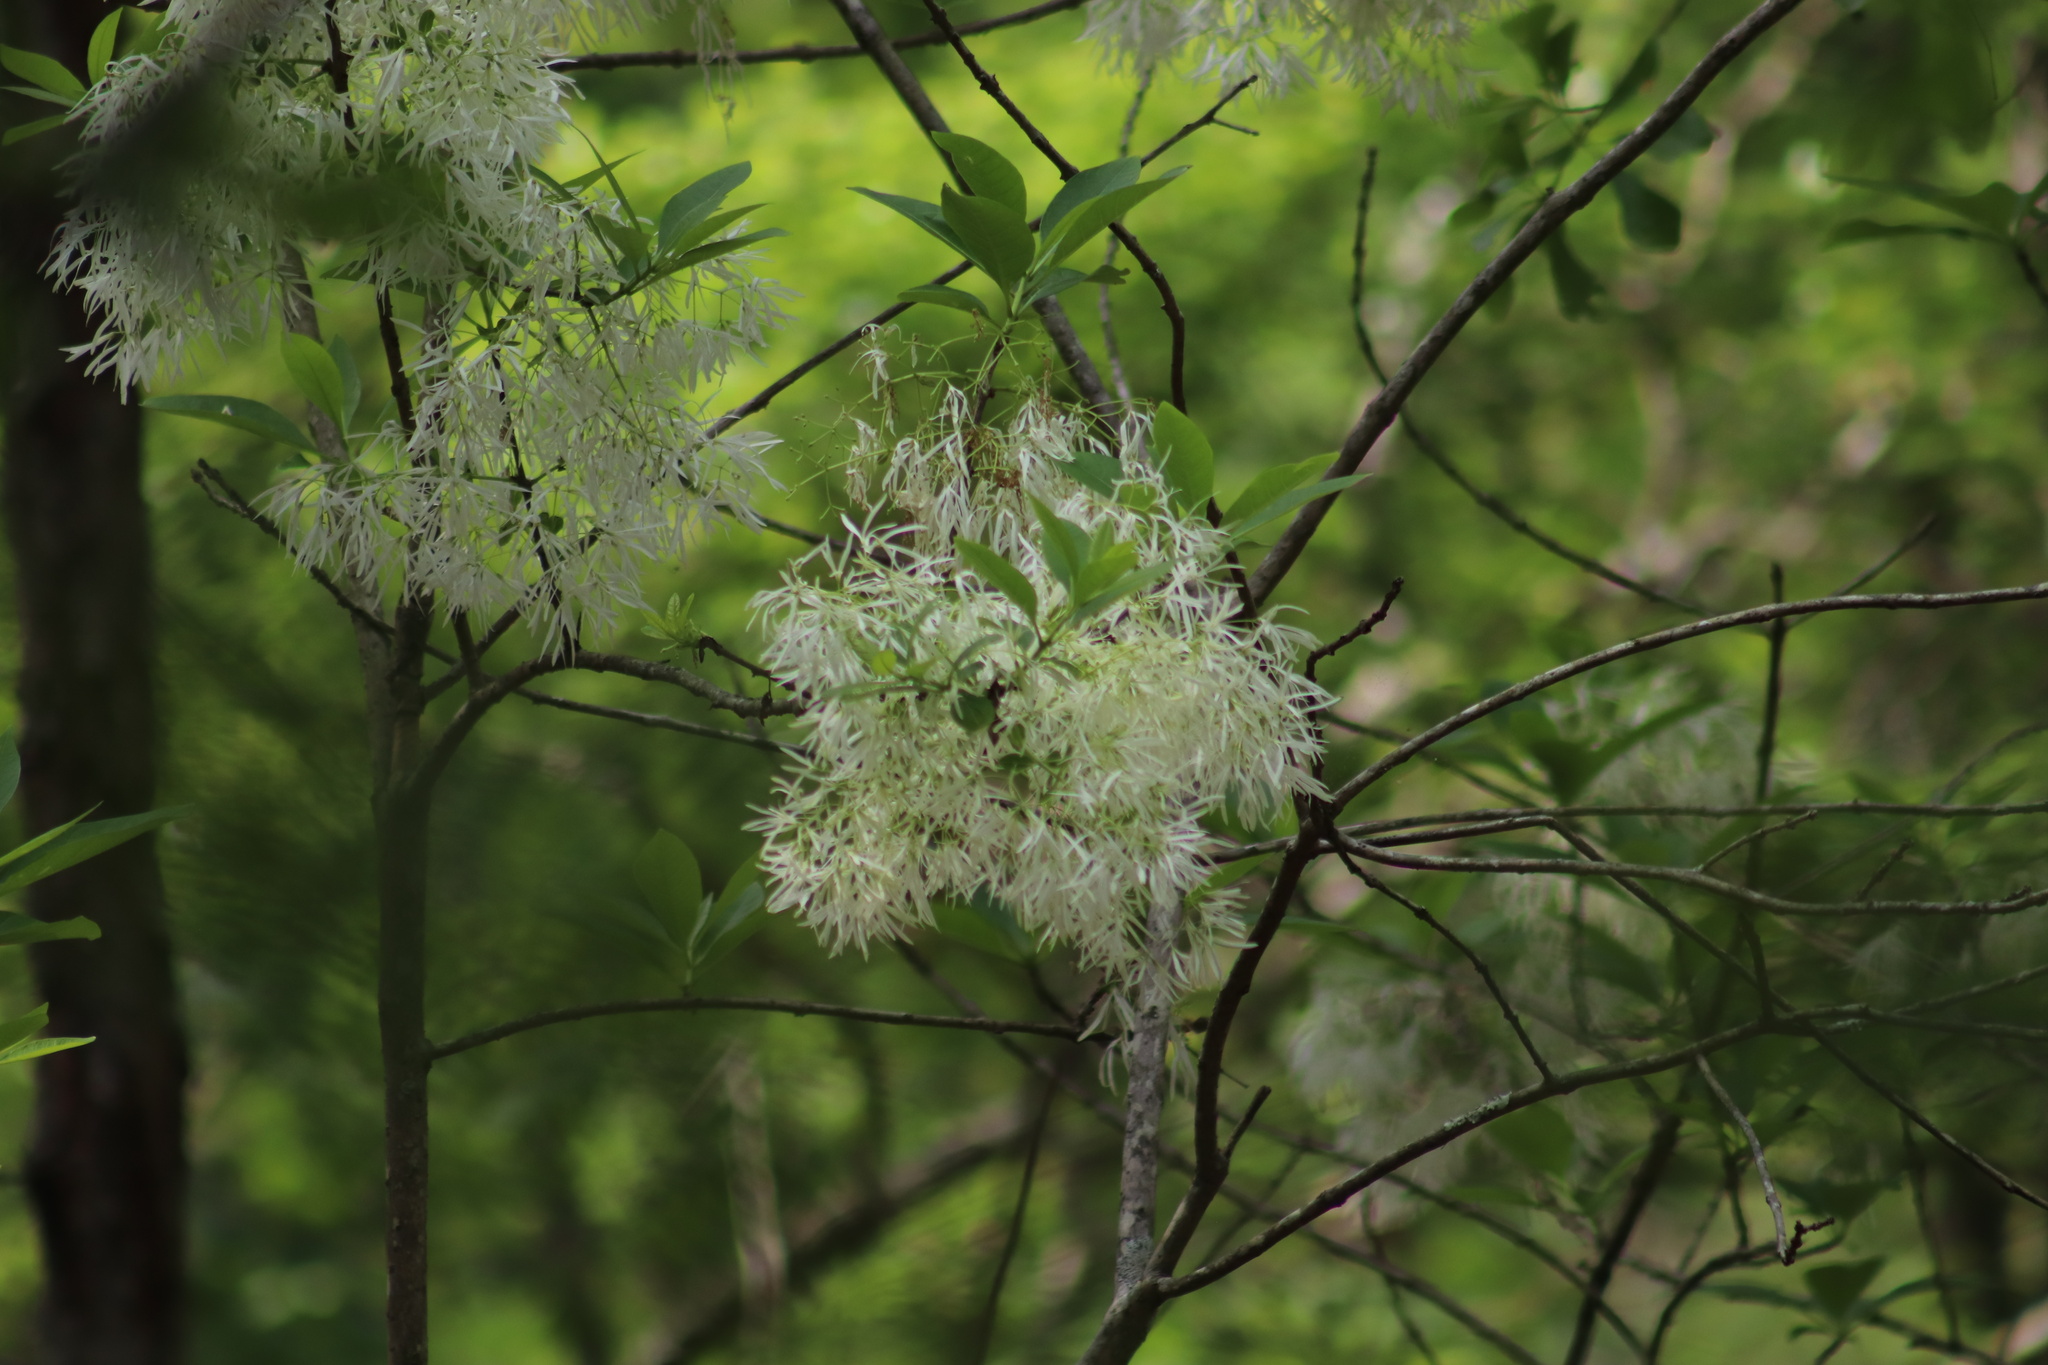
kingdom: Plantae
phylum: Tracheophyta
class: Magnoliopsida
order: Lamiales
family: Oleaceae
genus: Chionanthus
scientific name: Chionanthus virginicus
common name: American fringetree
